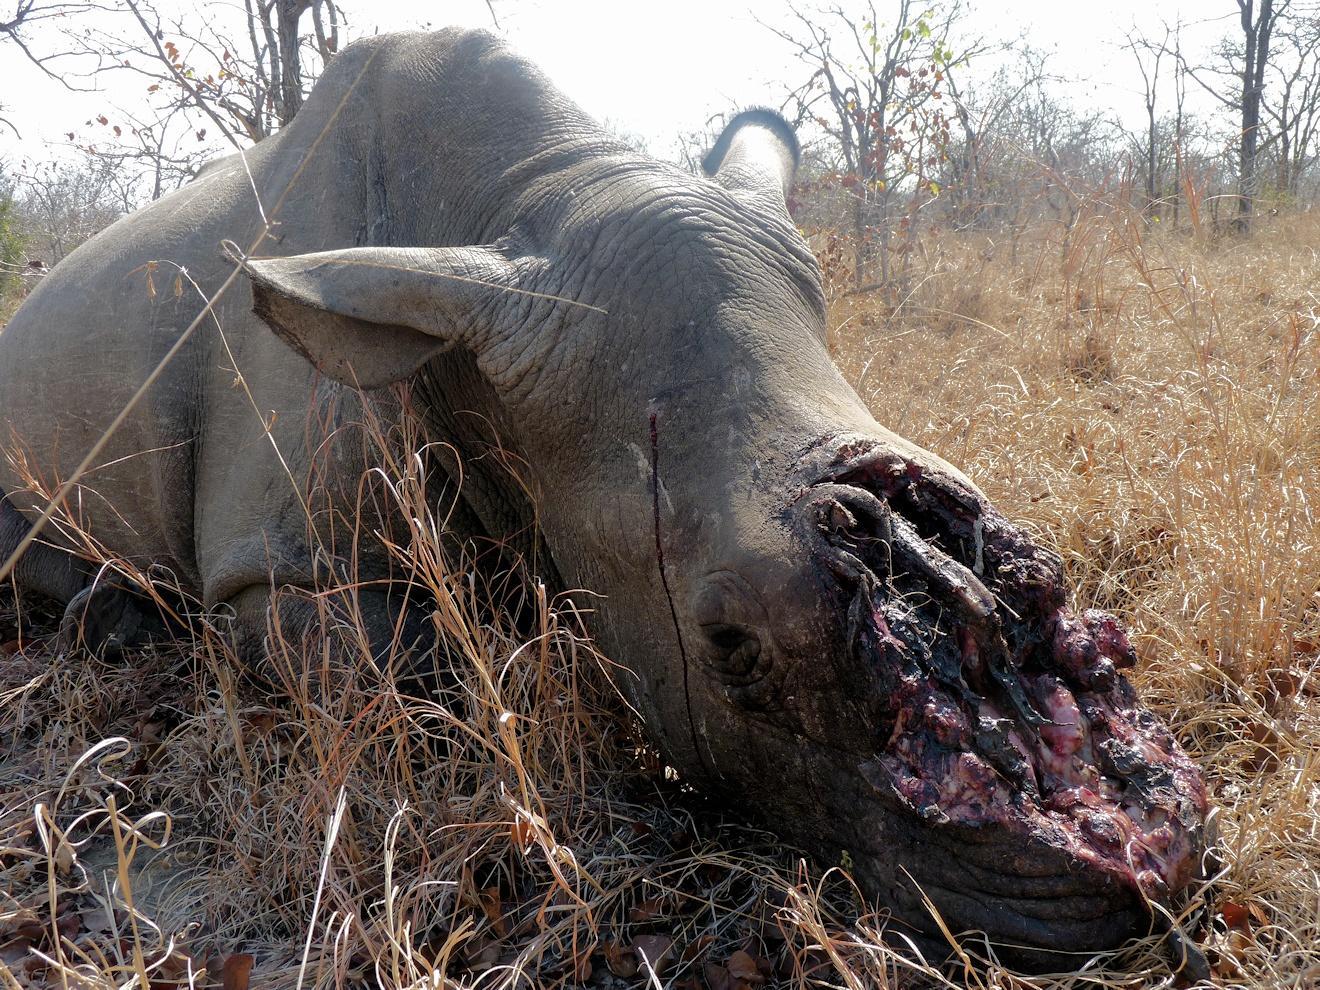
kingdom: Animalia
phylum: Chordata
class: Mammalia
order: Perissodactyla
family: Rhinocerotidae
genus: Ceratotherium
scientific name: Ceratotherium simum
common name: White rhinoceros
